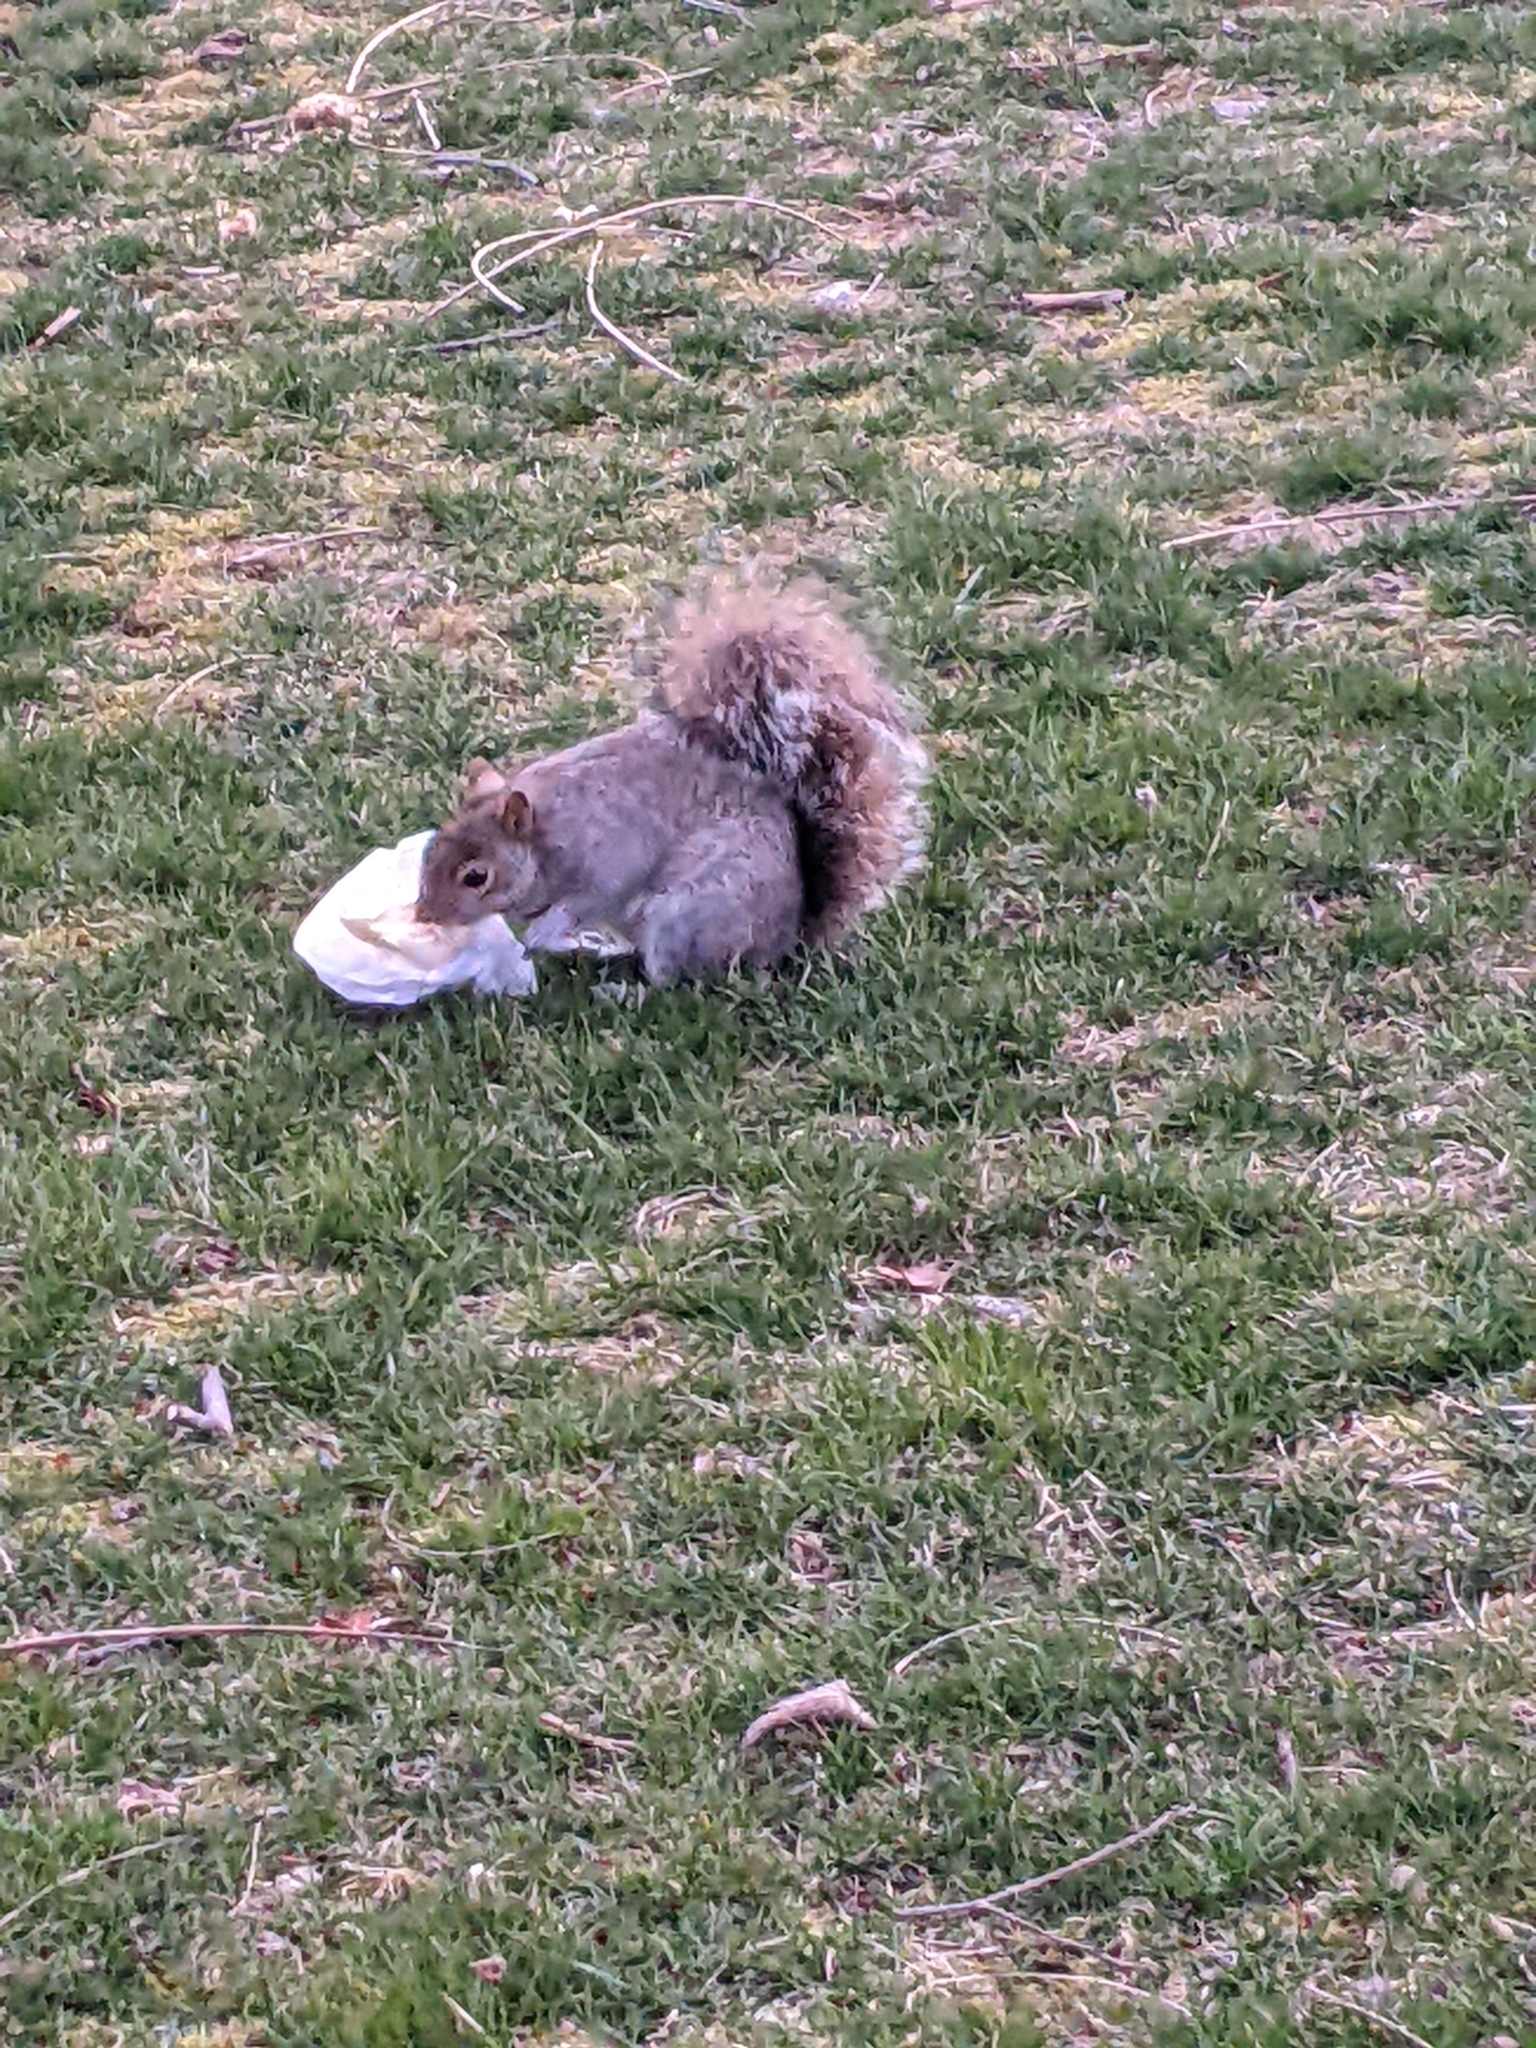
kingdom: Animalia
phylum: Chordata
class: Mammalia
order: Rodentia
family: Sciuridae
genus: Sciurus
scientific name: Sciurus carolinensis
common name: Eastern gray squirrel
